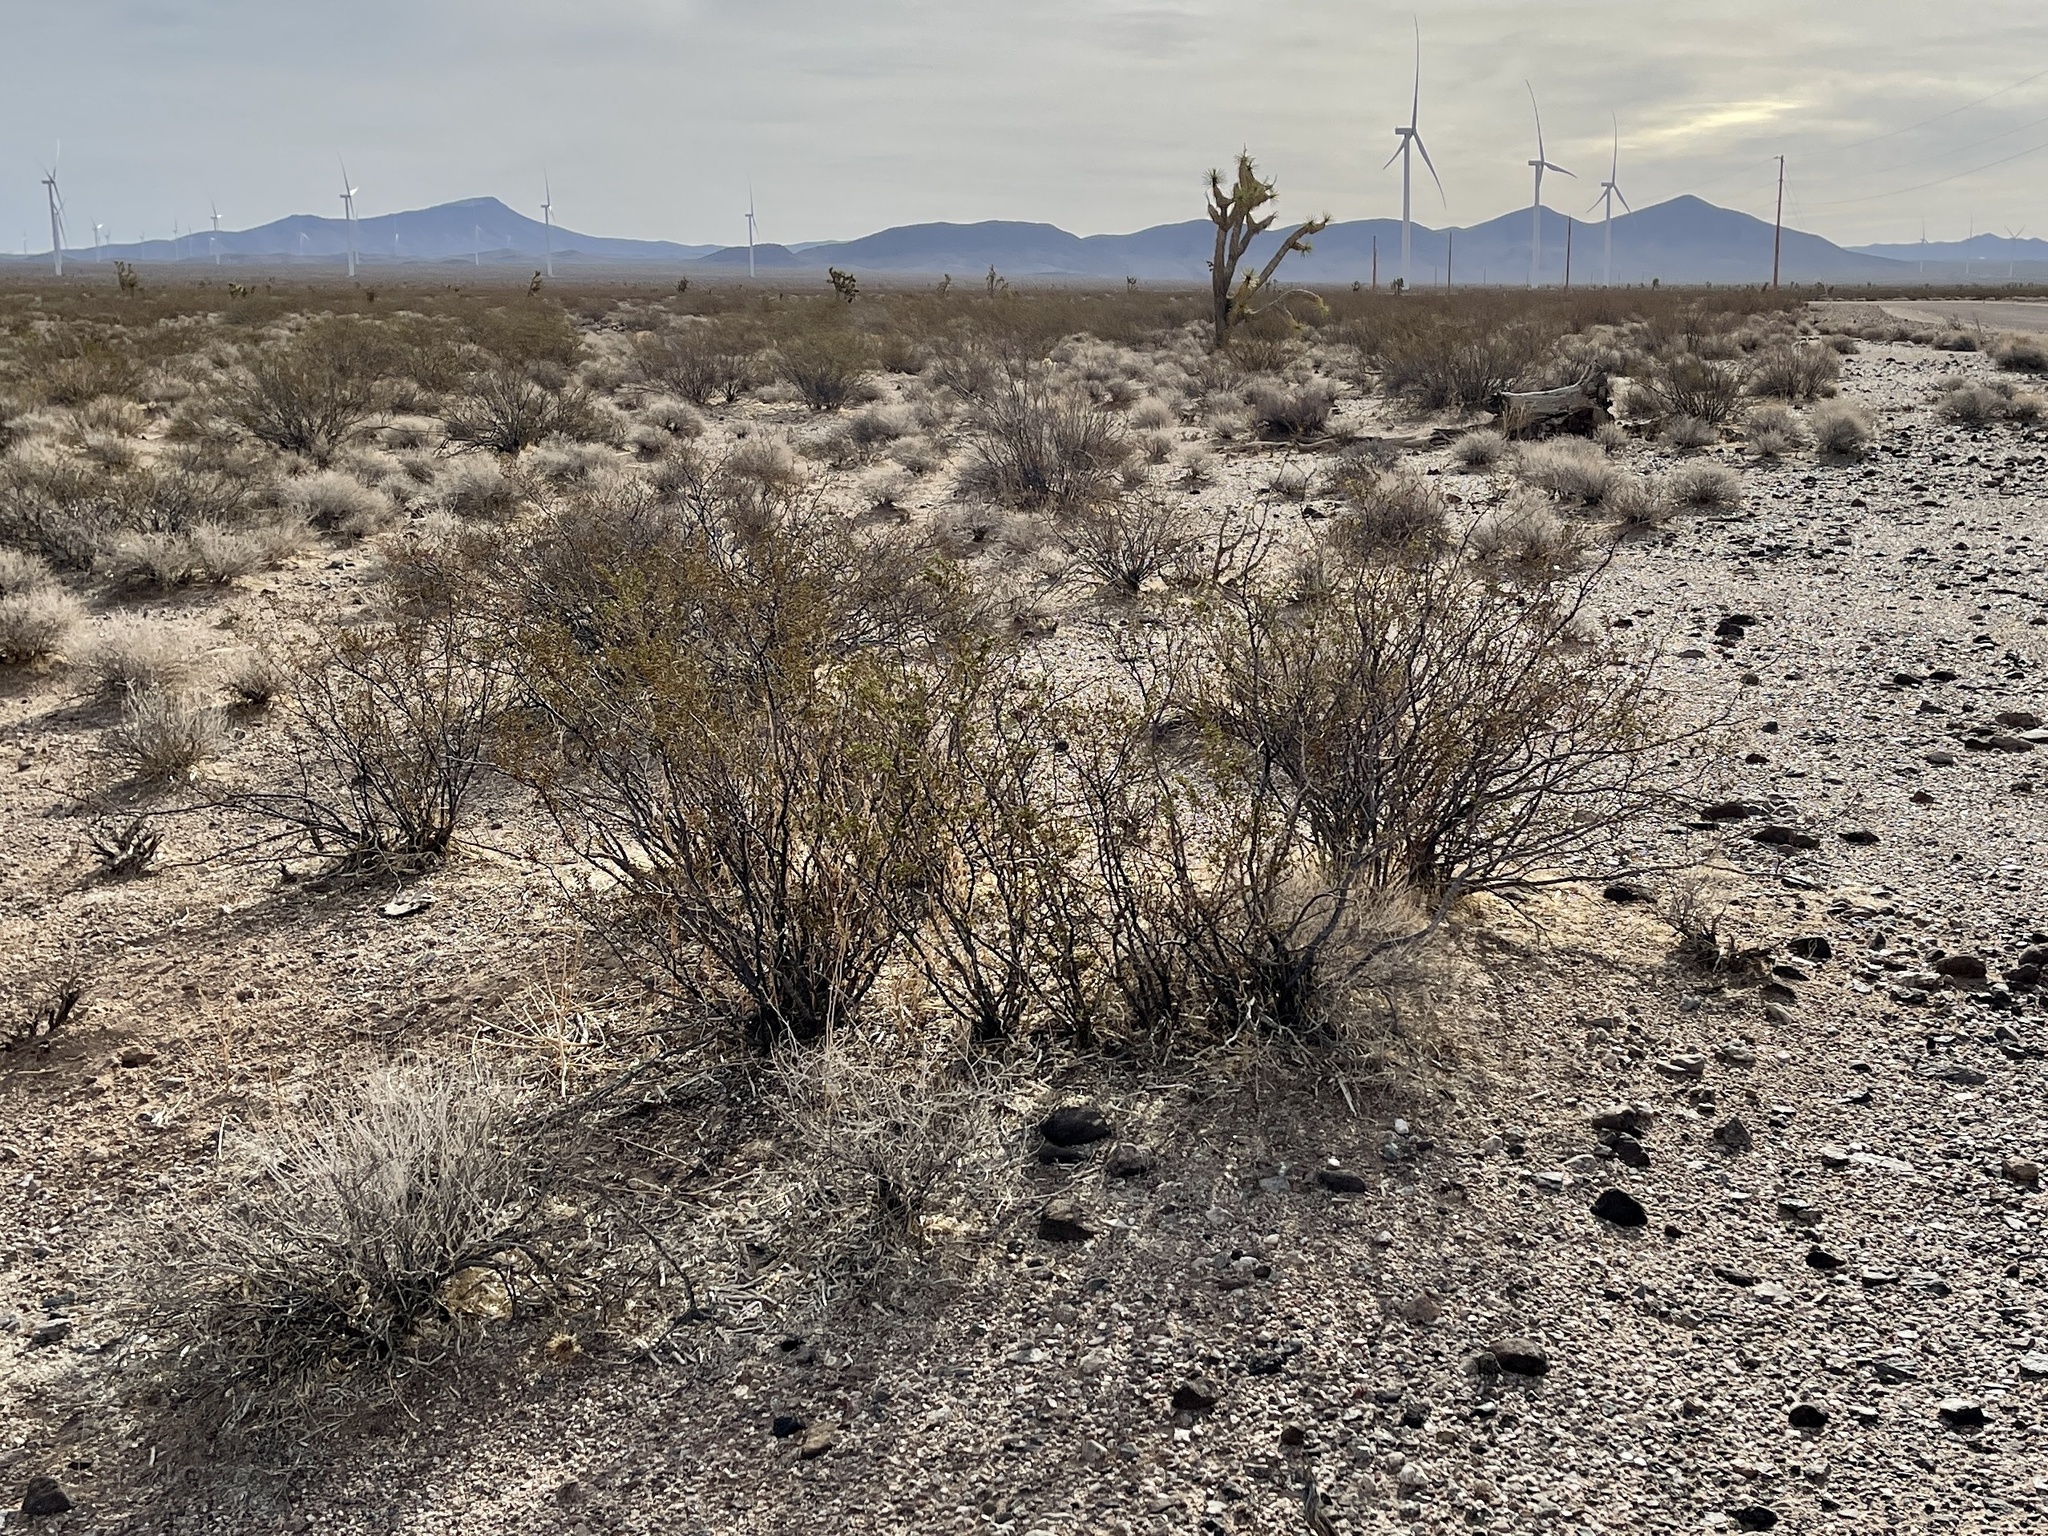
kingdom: Plantae
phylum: Tracheophyta
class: Magnoliopsida
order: Zygophyllales
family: Zygophyllaceae
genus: Larrea
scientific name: Larrea tridentata
